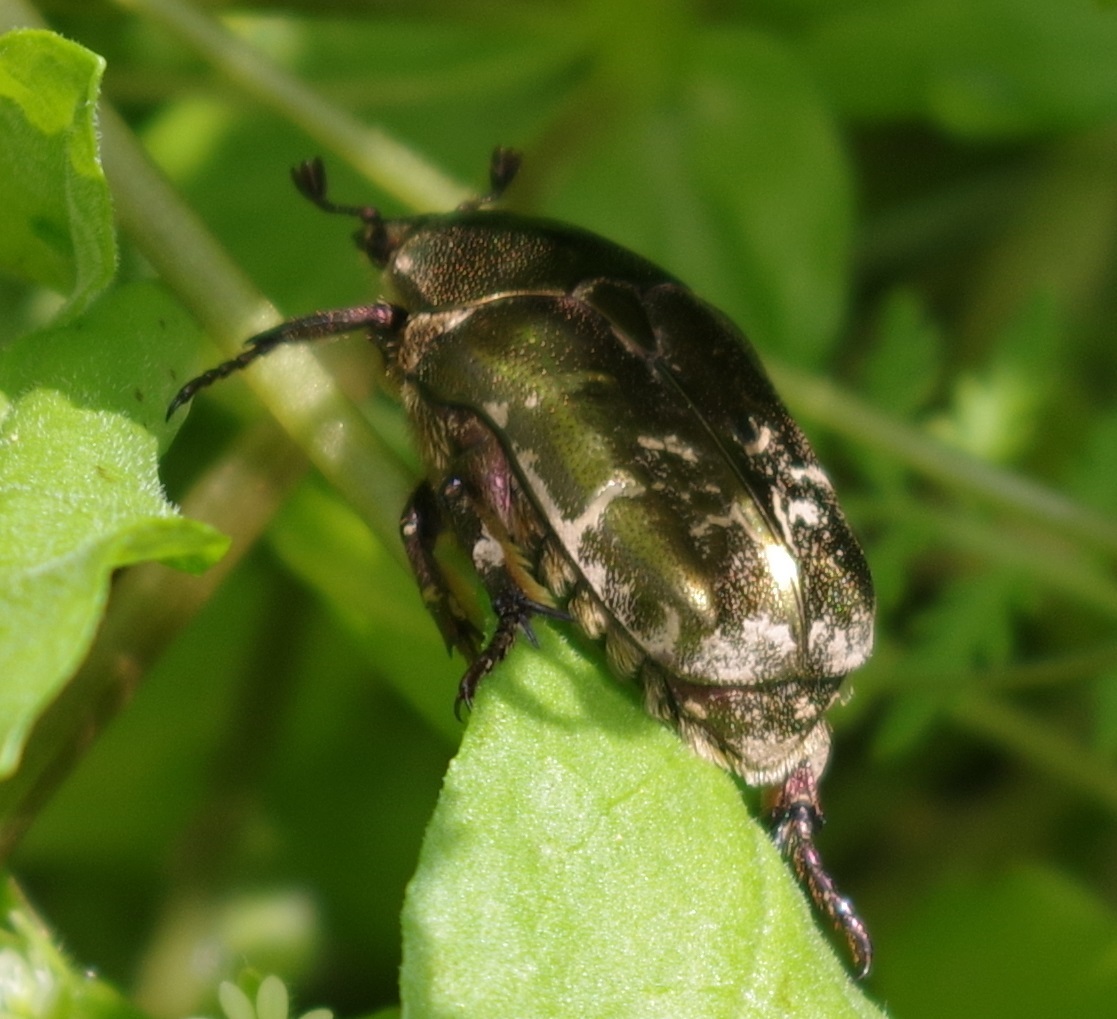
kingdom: Animalia
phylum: Arthropoda
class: Insecta
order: Coleoptera
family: Scarabaeidae
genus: Protaetia
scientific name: Protaetia cuprea
